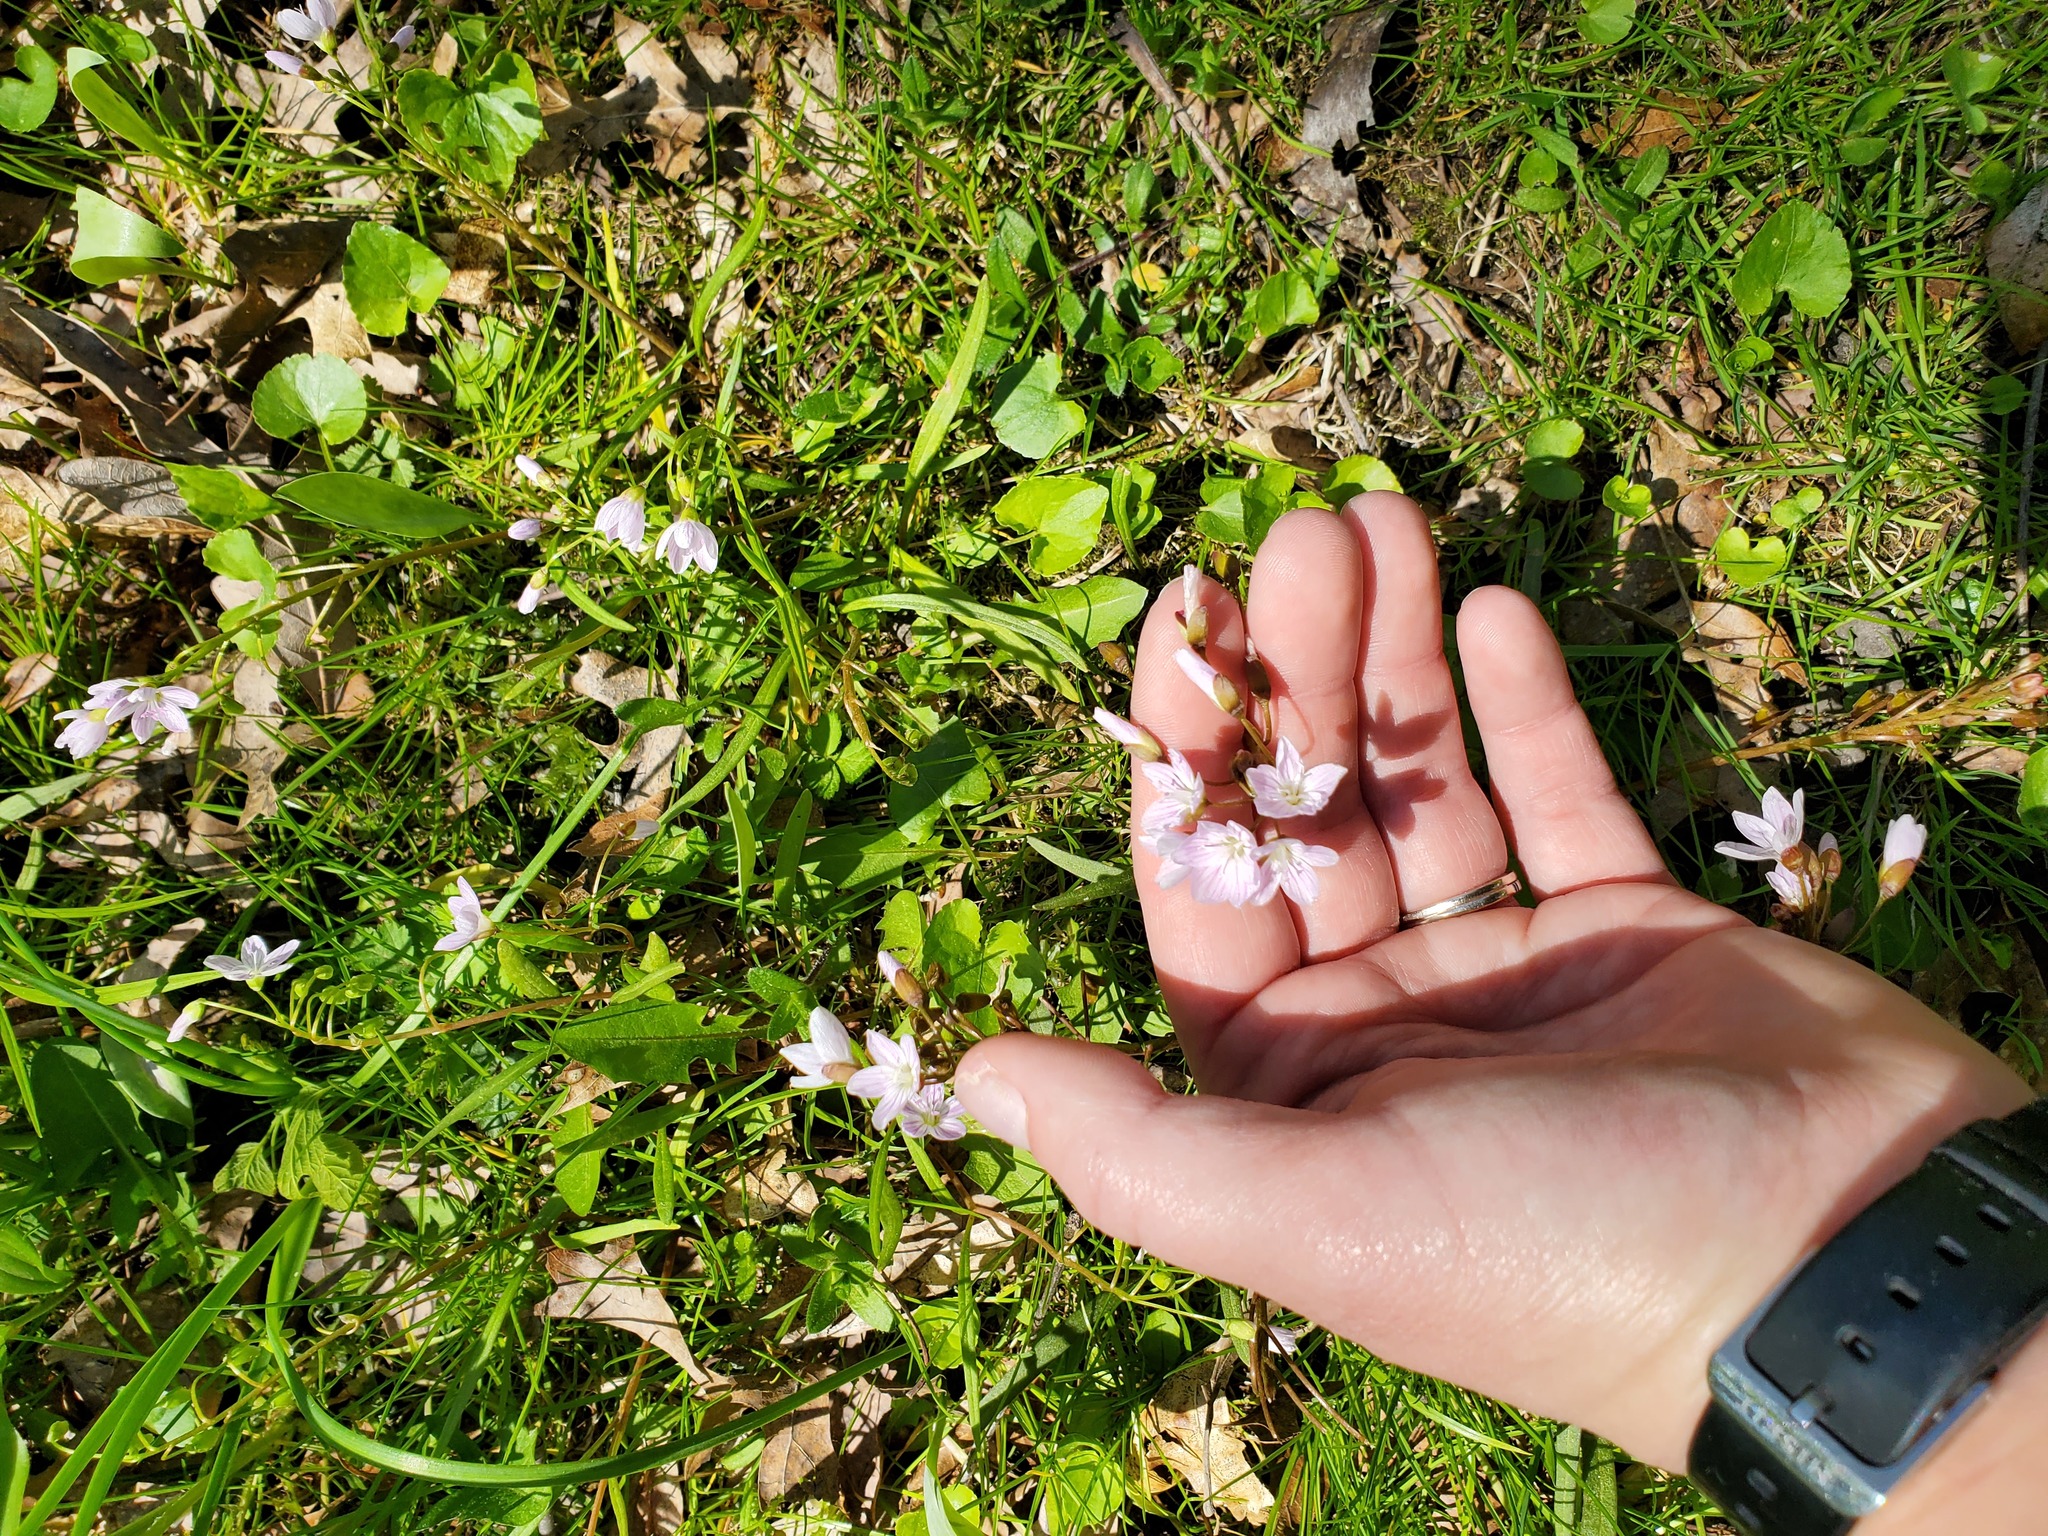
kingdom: Plantae
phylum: Tracheophyta
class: Magnoliopsida
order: Caryophyllales
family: Montiaceae
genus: Claytonia
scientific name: Claytonia virginica
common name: Virginia springbeauty
